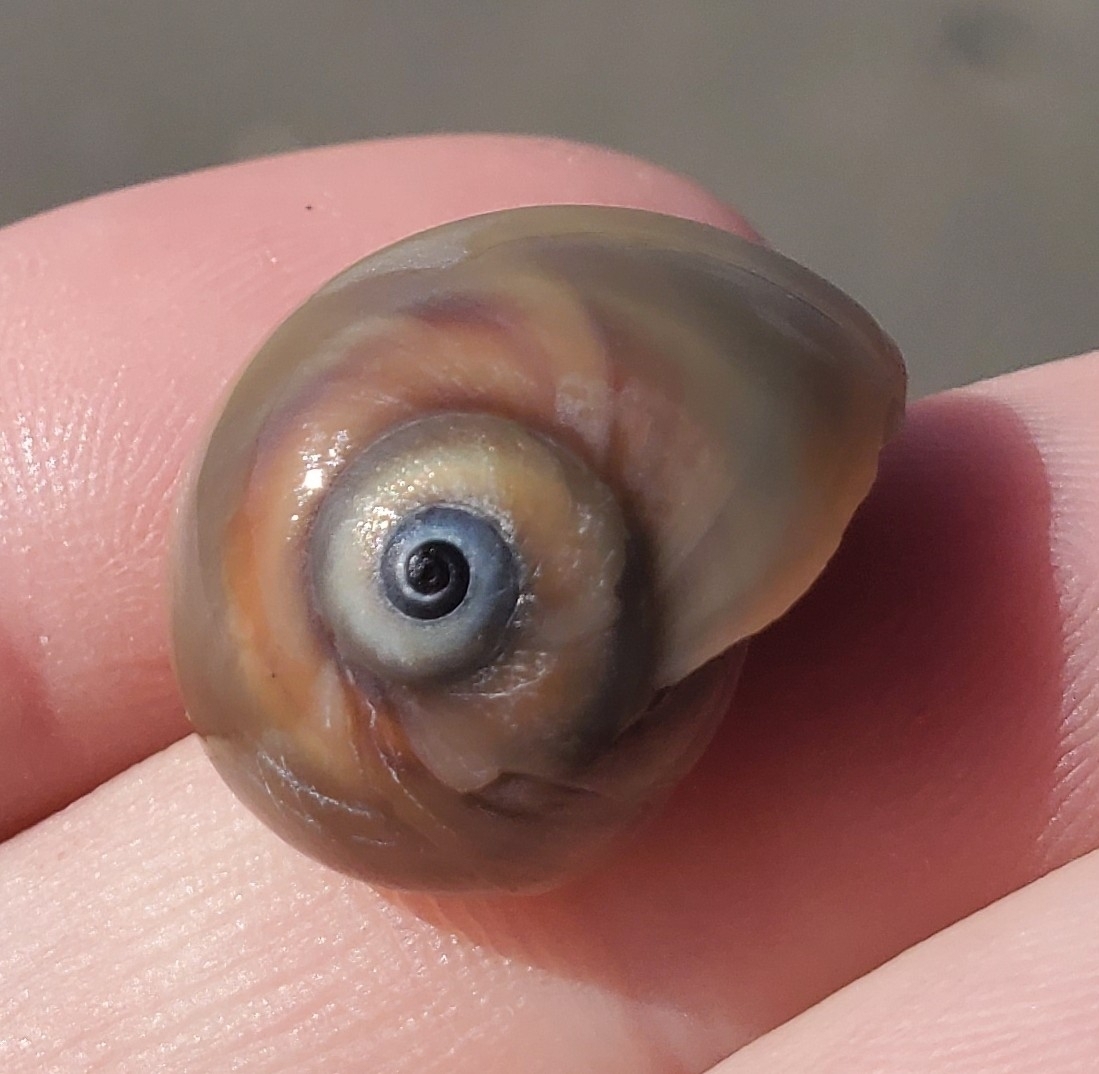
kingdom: Animalia
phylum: Mollusca
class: Gastropoda
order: Littorinimorpha
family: Naticidae
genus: Neverita
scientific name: Neverita duplicata
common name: Lobed moonsnail
